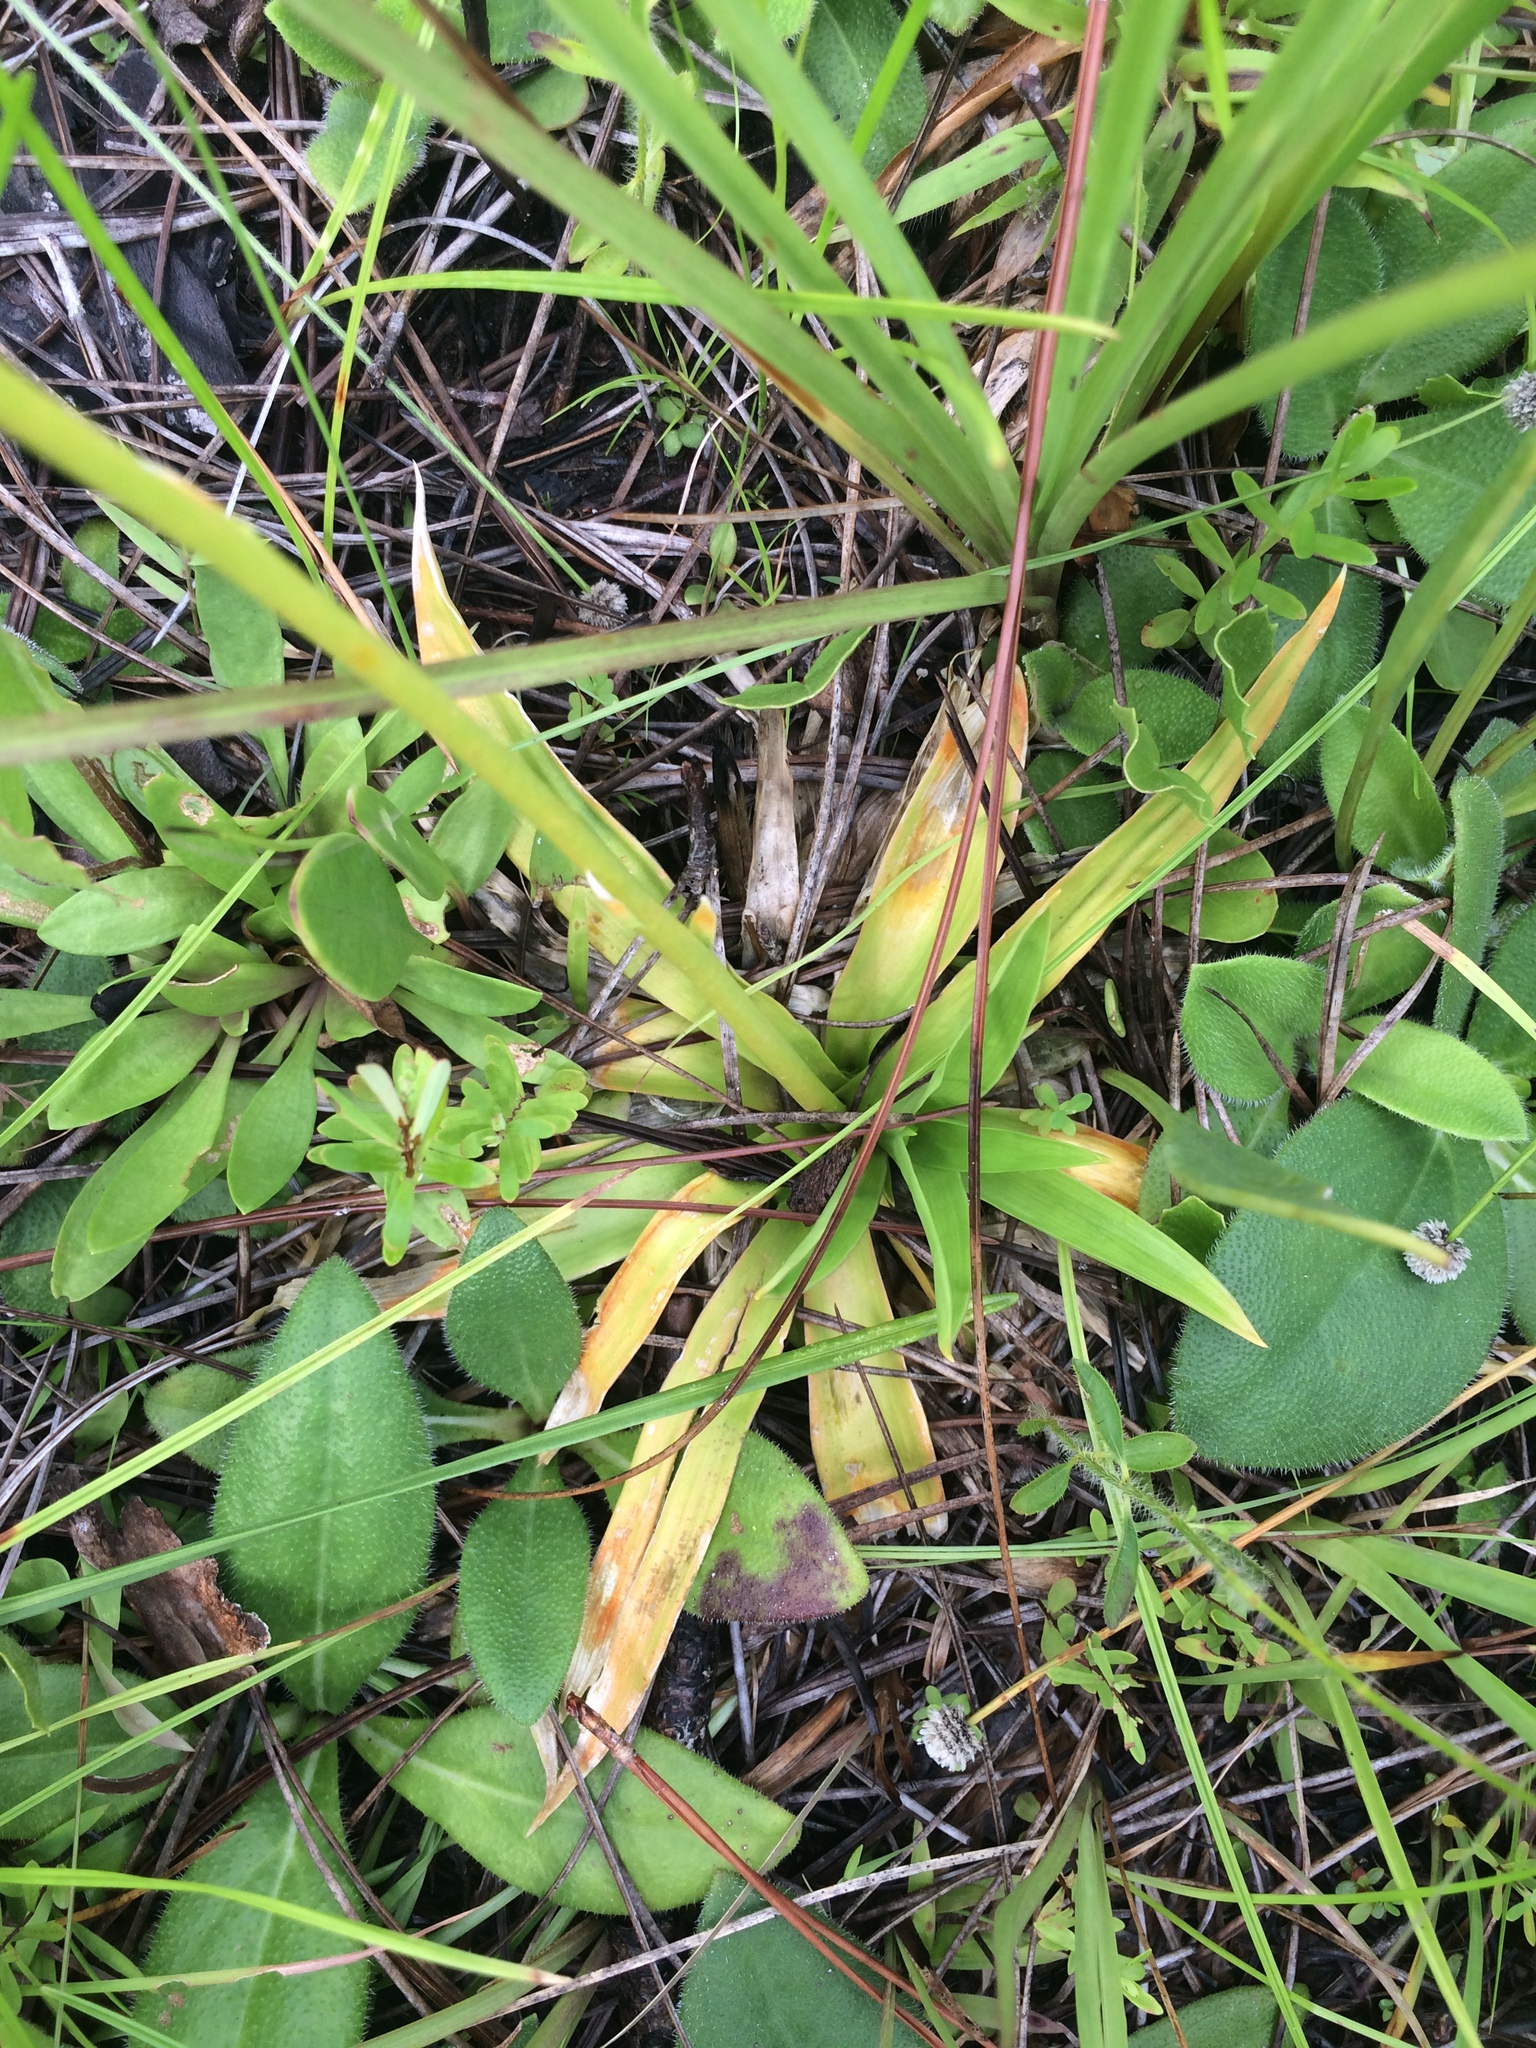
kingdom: Plantae
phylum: Tracheophyta
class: Liliopsida
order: Poales
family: Eriocaulaceae
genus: Eriocaulon
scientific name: Eriocaulon decangulare
